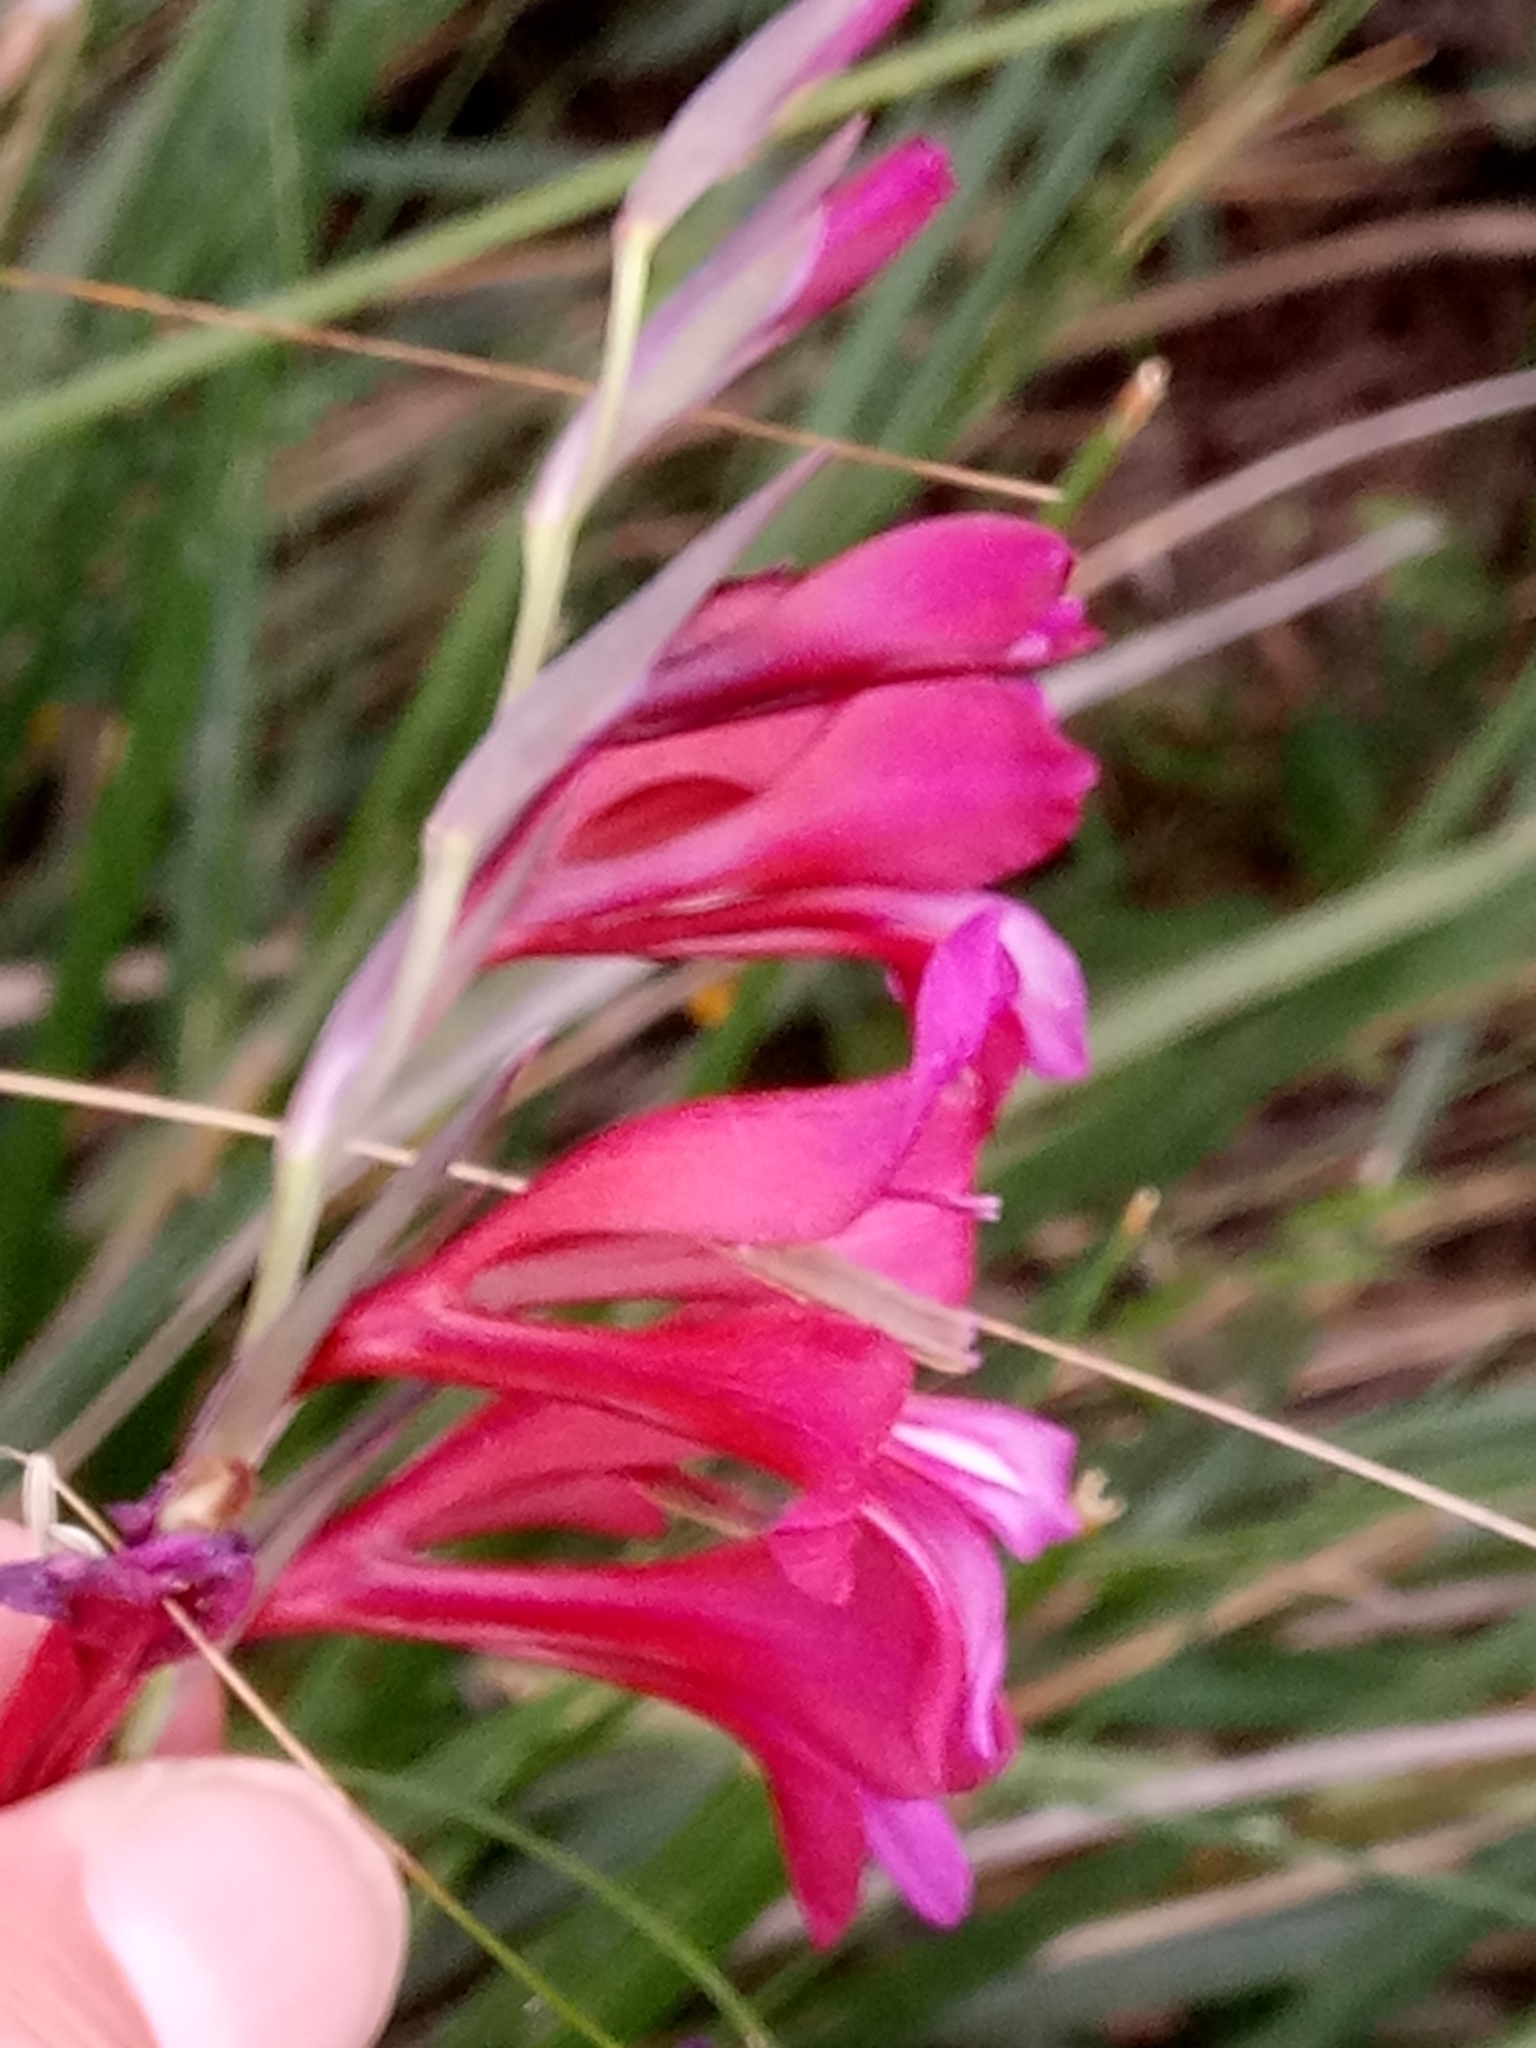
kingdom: Plantae
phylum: Tracheophyta
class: Liliopsida
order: Asparagales
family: Iridaceae
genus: Gladiolus
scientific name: Gladiolus dubius
